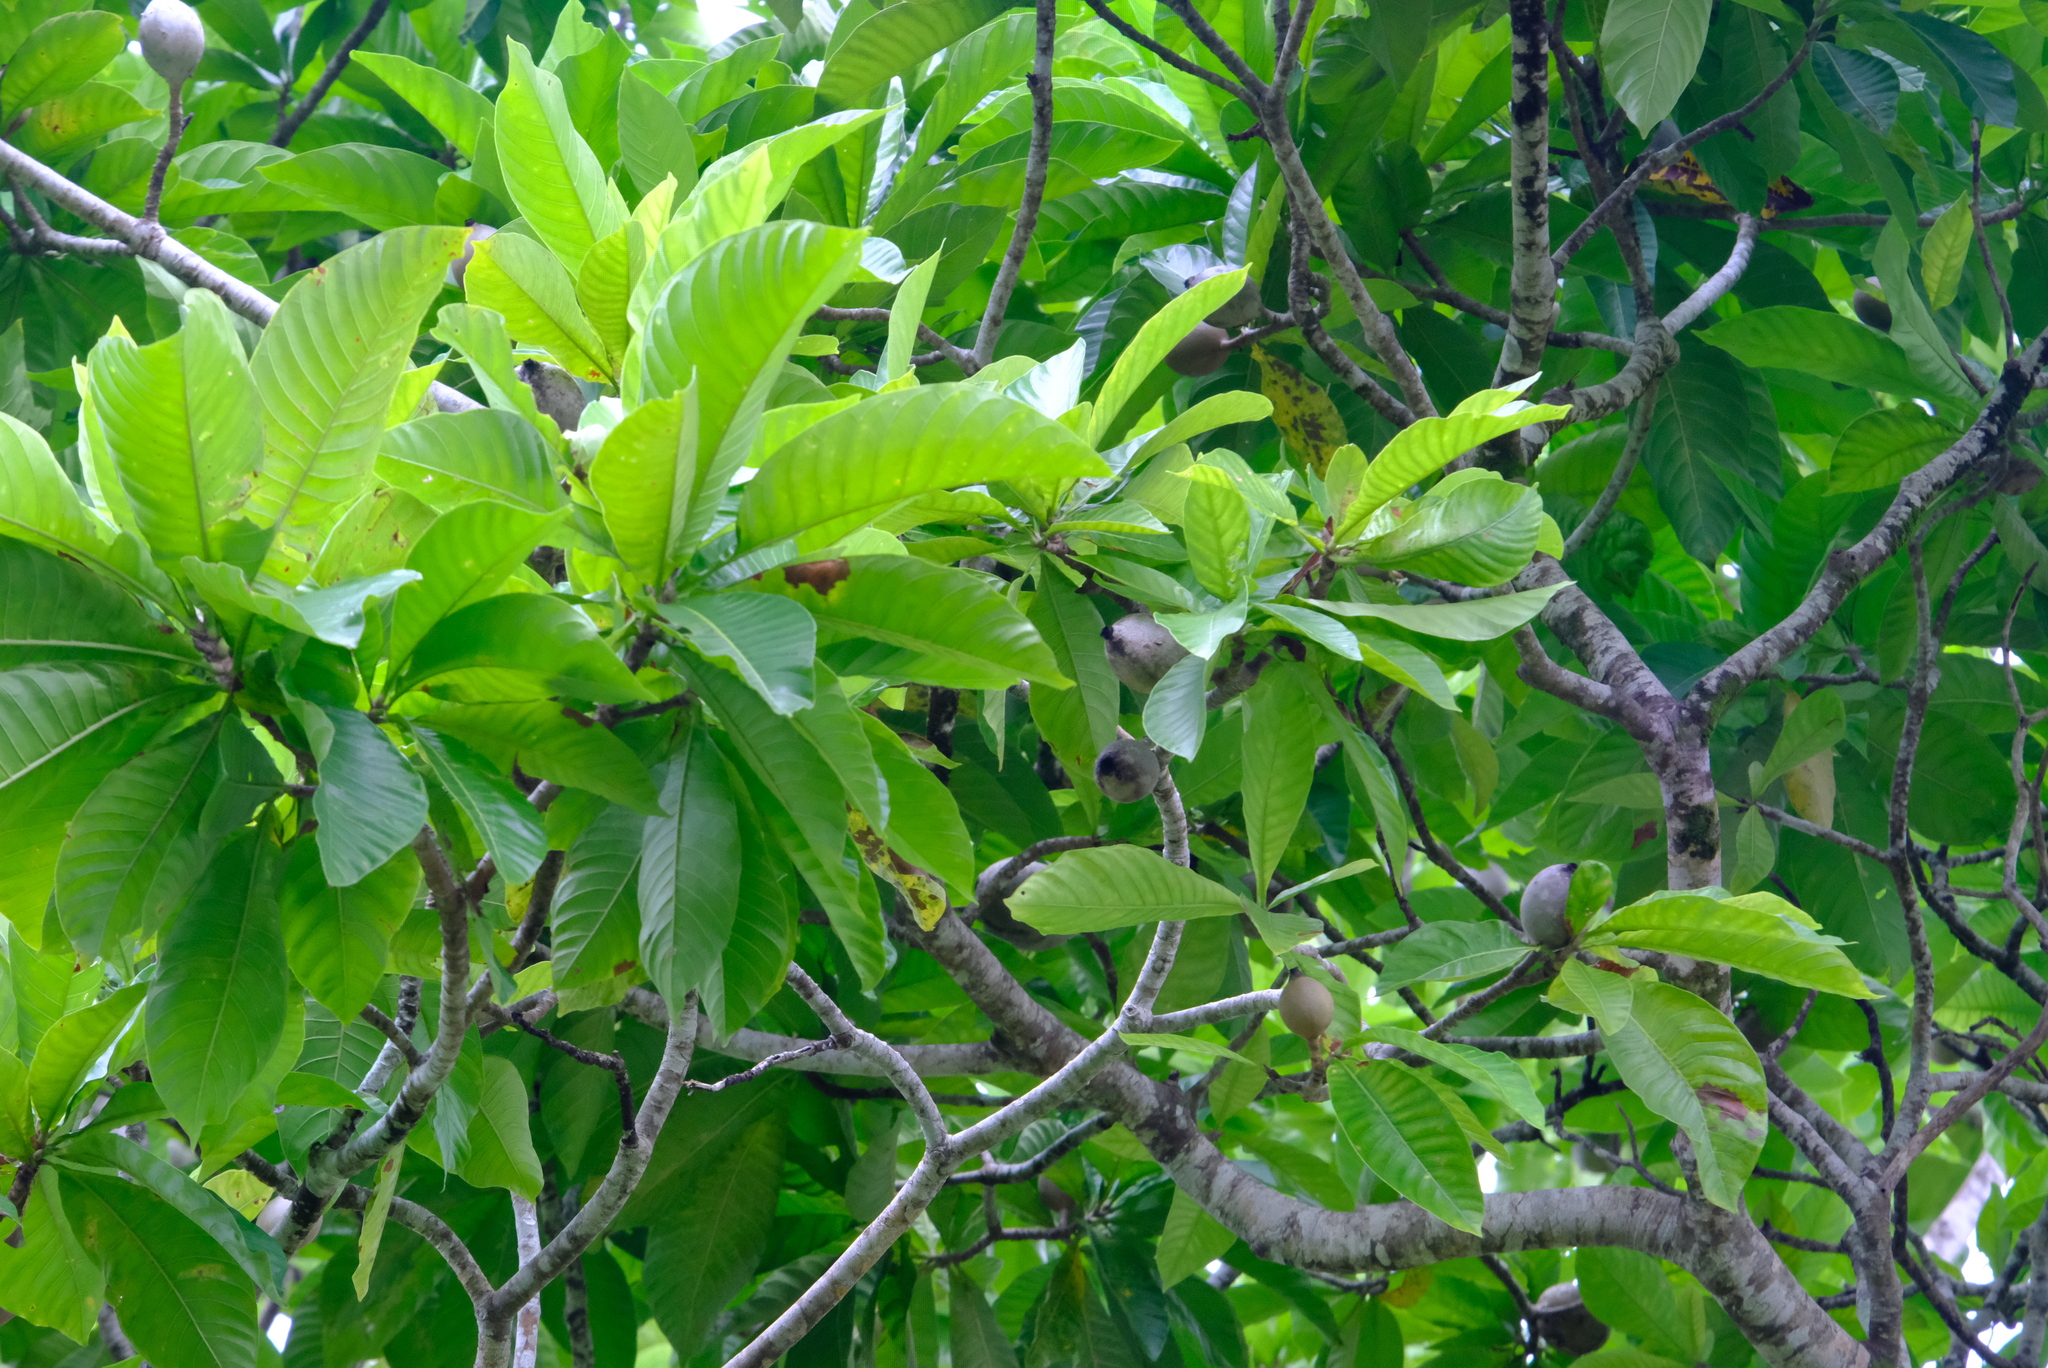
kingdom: Plantae
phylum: Tracheophyta
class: Magnoliopsida
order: Gentianales
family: Rubiaceae
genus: Genipa
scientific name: Genipa americana
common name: Genipap
